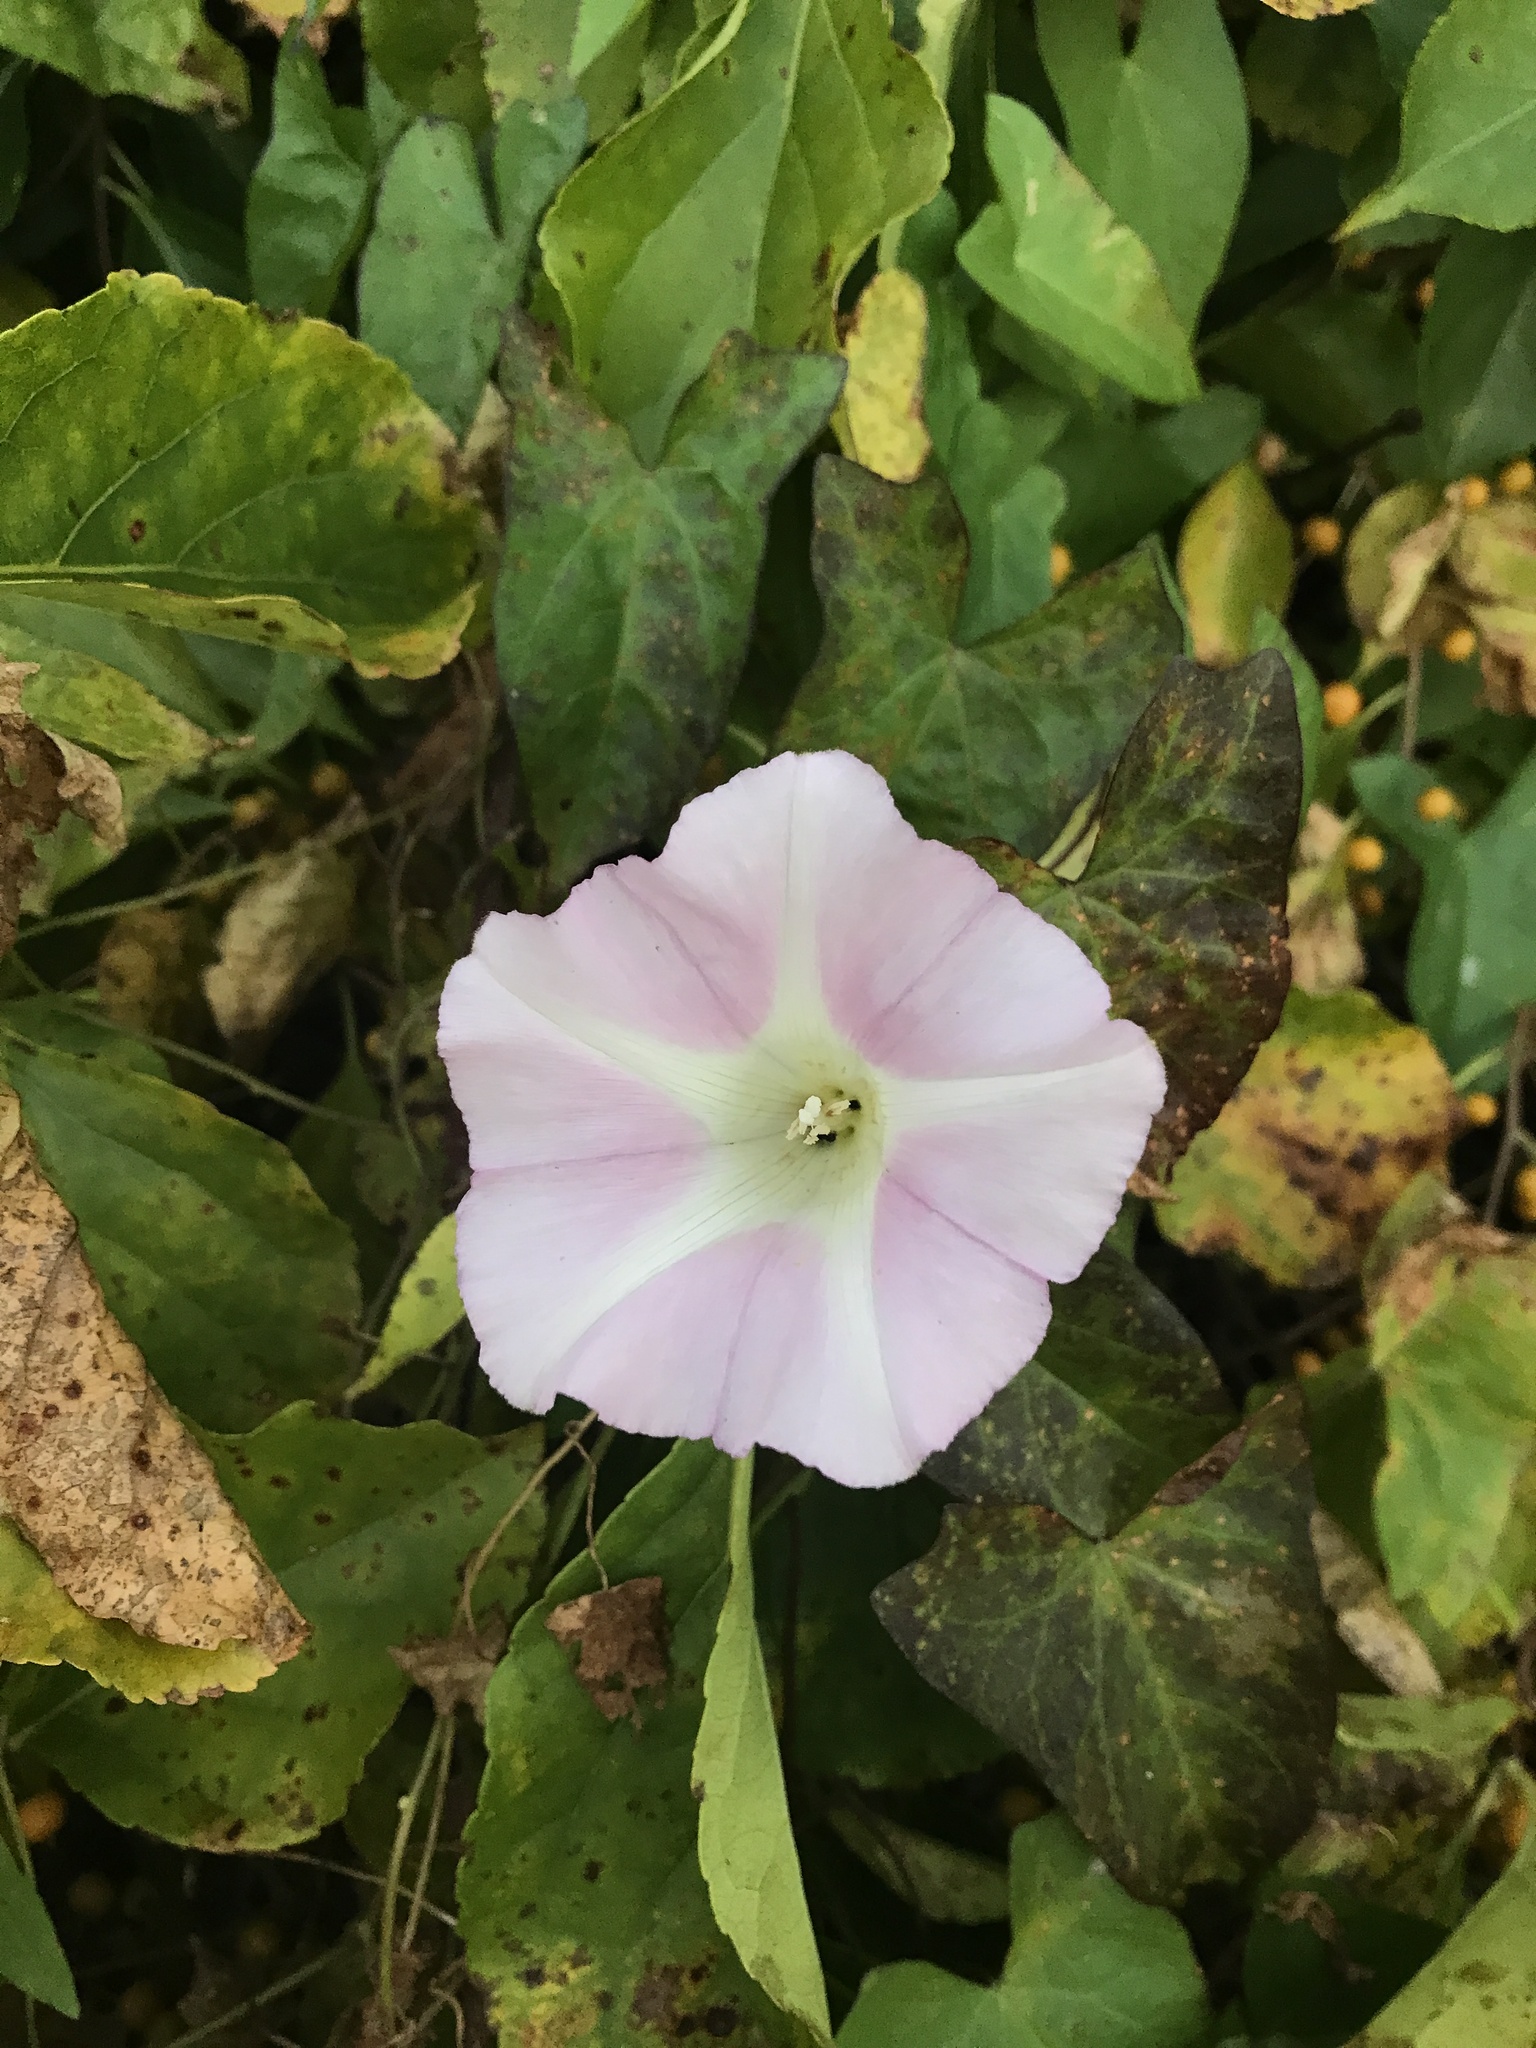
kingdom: Plantae
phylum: Tracheophyta
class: Magnoliopsida
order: Solanales
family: Convolvulaceae
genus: Calystegia
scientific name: Calystegia sepium
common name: Hedge bindweed
